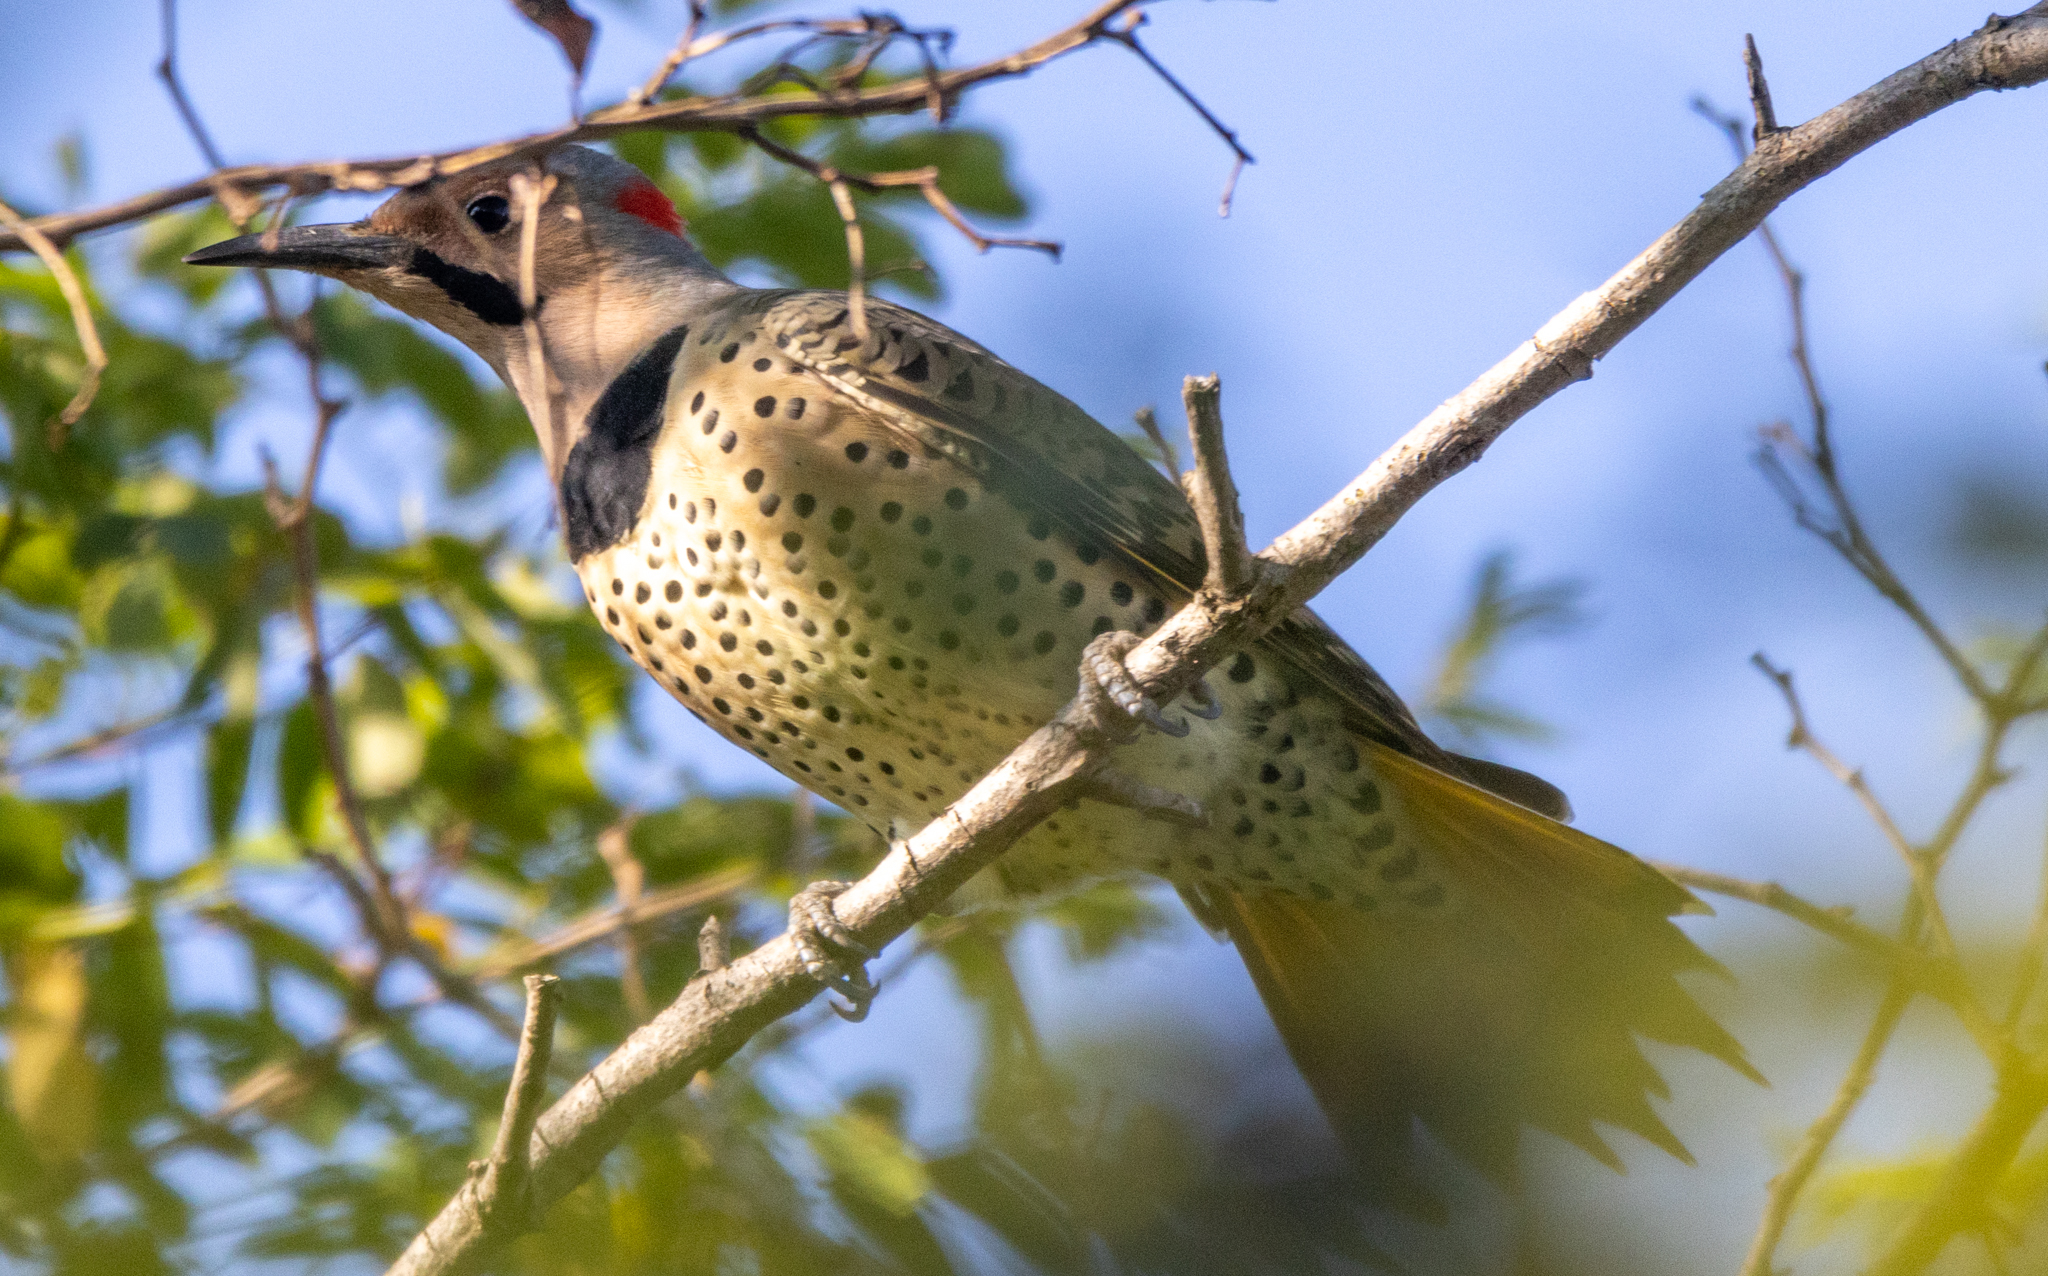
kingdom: Animalia
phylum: Chordata
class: Aves
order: Piciformes
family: Picidae
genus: Colaptes
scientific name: Colaptes auratus
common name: Northern flicker
